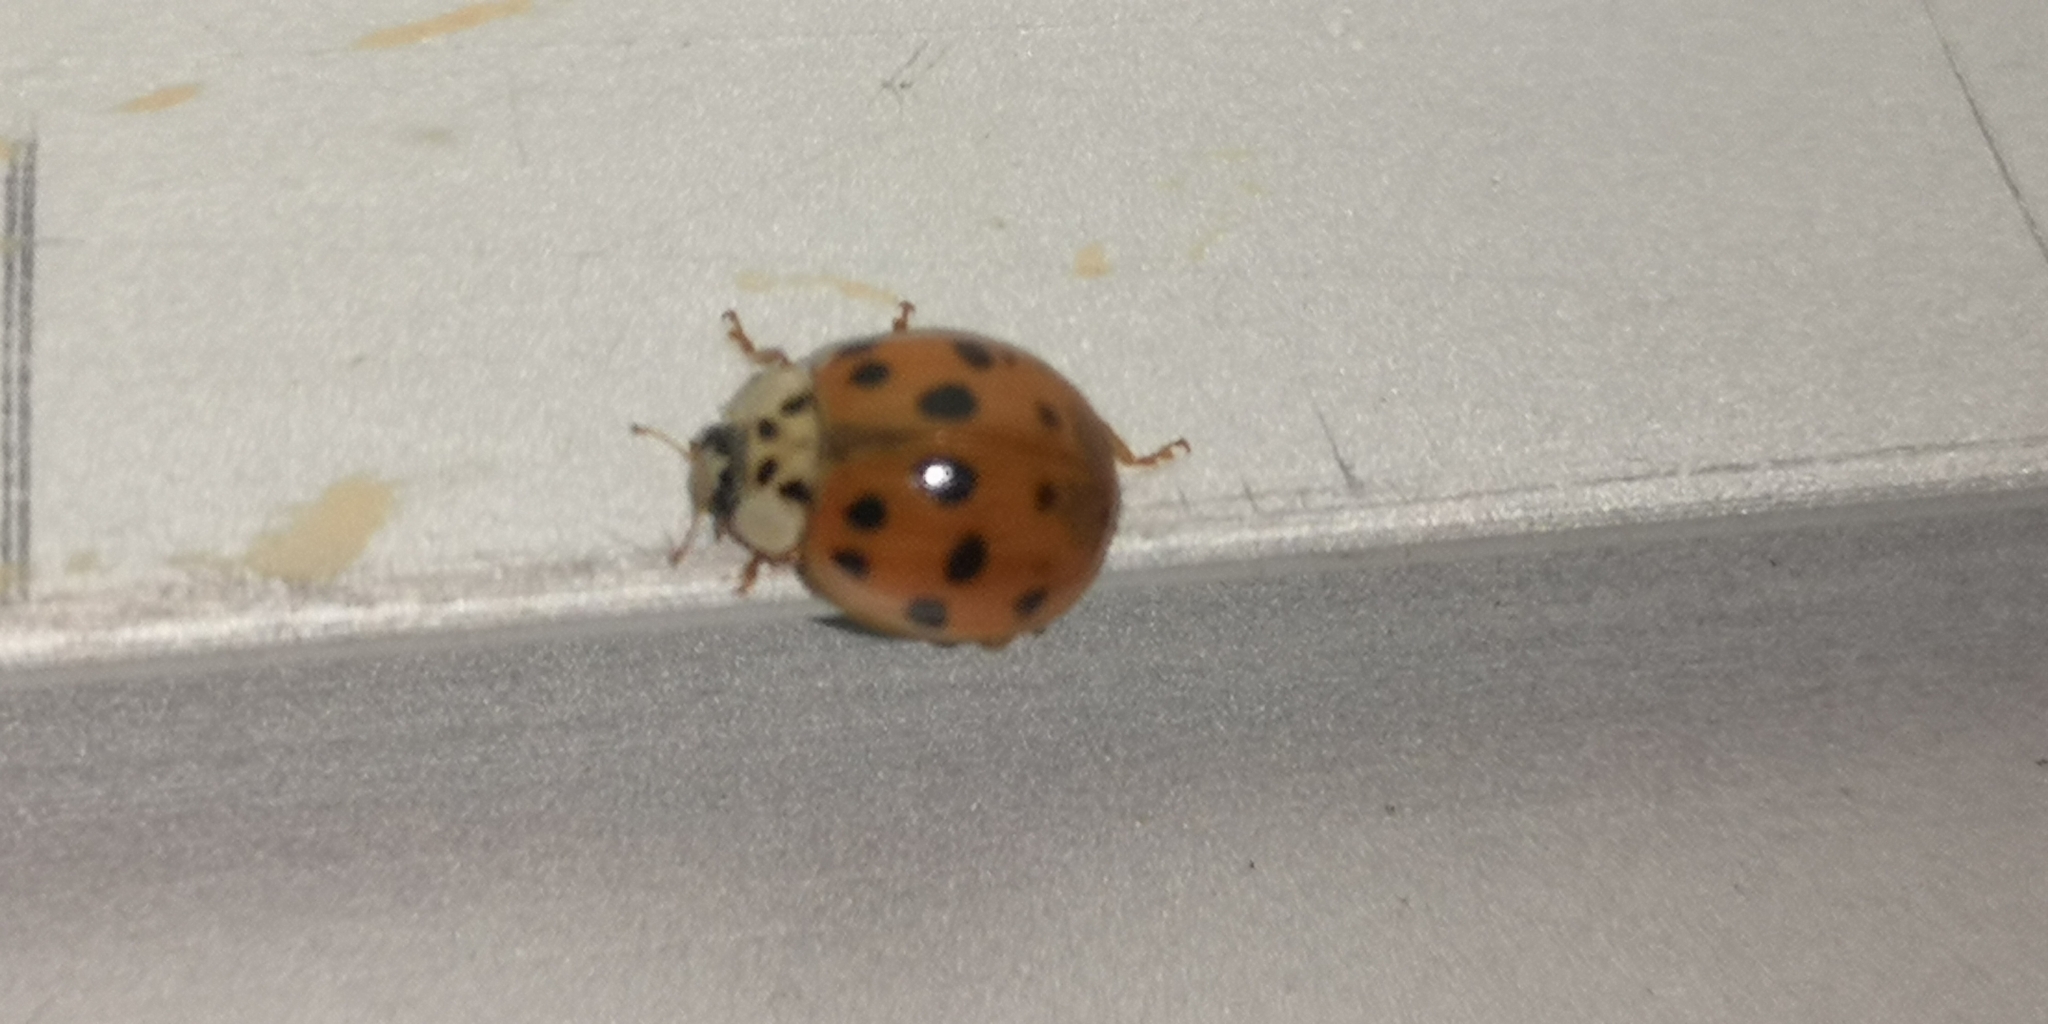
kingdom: Animalia
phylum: Arthropoda
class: Insecta
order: Coleoptera
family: Coccinellidae
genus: Harmonia
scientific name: Harmonia axyridis
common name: Harlequin ladybird
